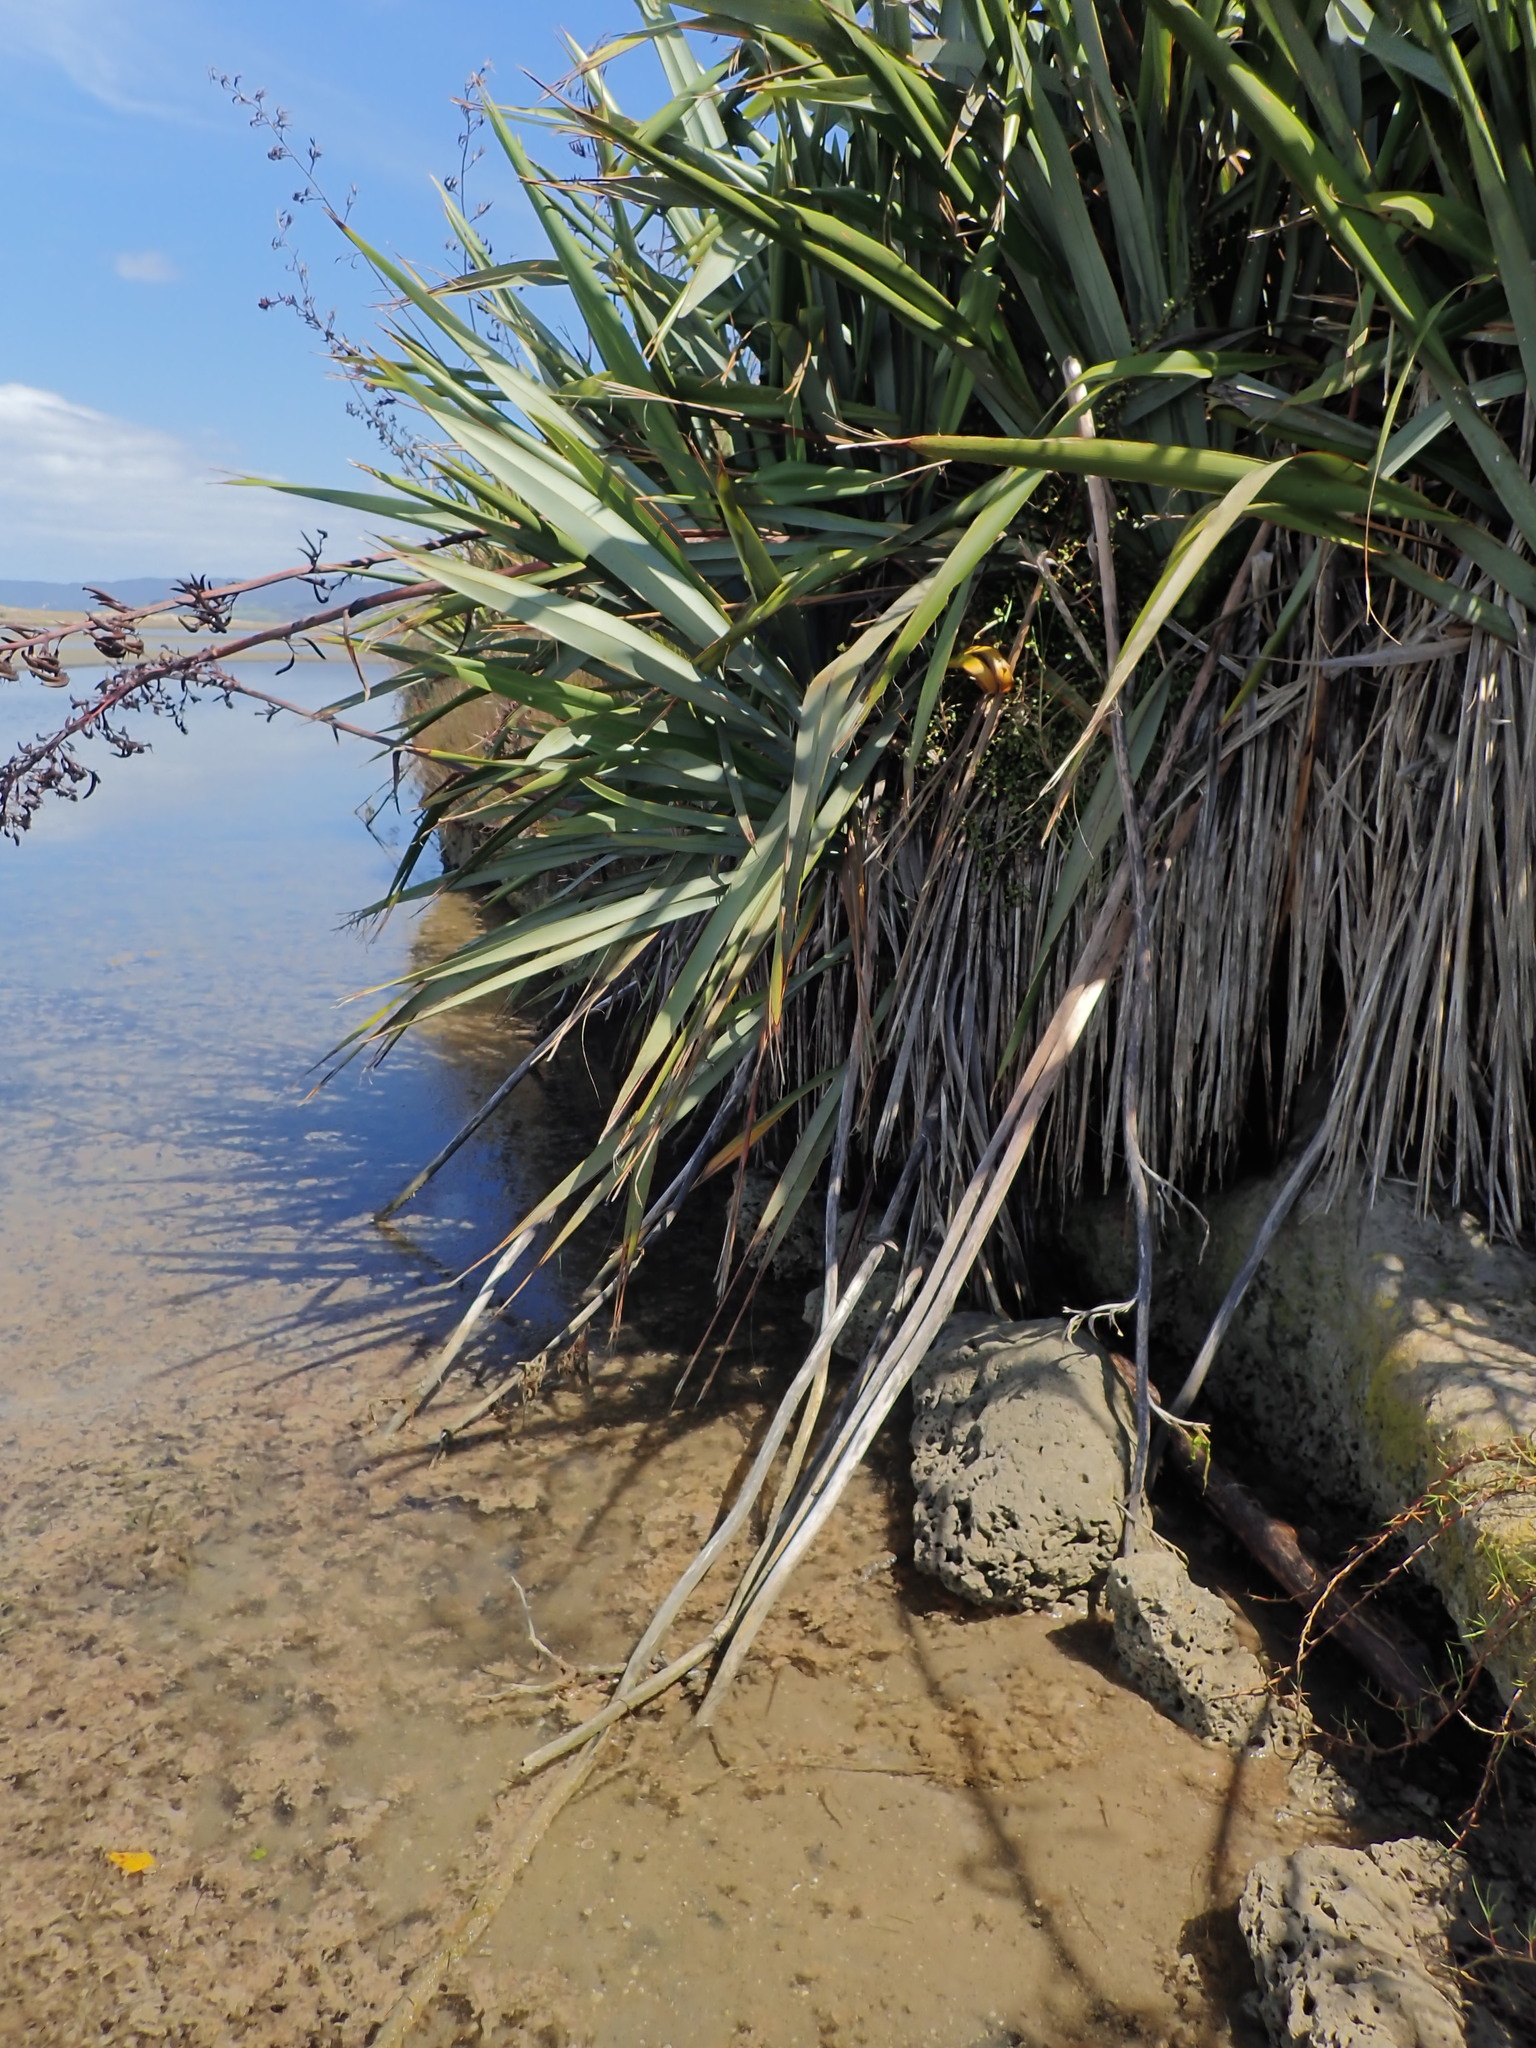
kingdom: Plantae
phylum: Tracheophyta
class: Liliopsida
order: Asparagales
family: Asphodelaceae
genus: Phormium
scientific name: Phormium tenax
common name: New zealand flax
